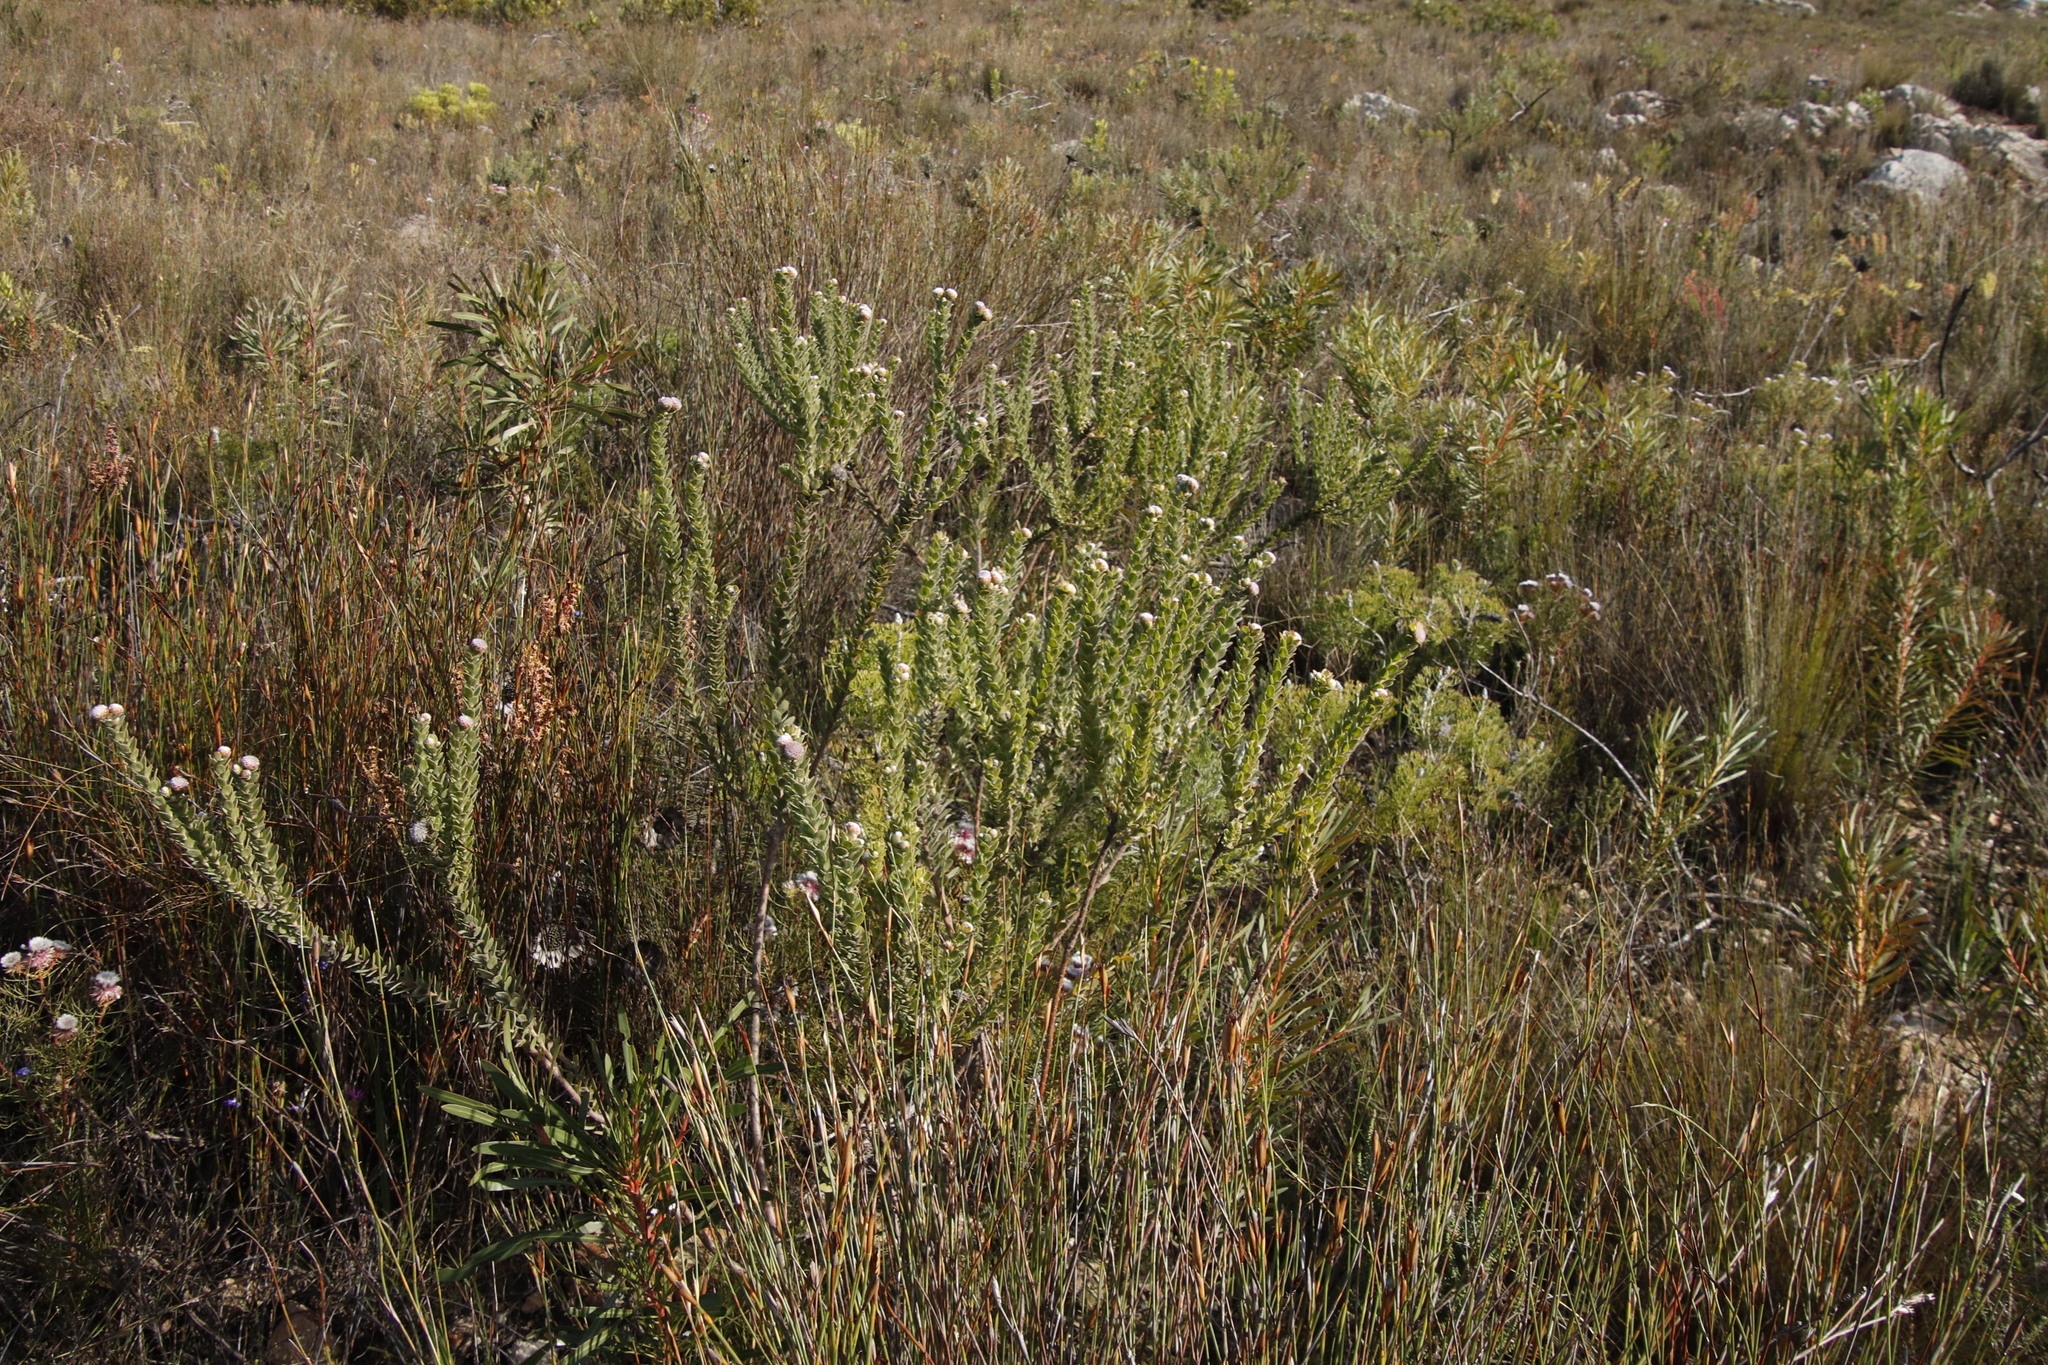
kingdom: Plantae
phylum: Tracheophyta
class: Magnoliopsida
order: Proteales
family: Proteaceae
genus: Leucospermum
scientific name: Leucospermum truncatulum
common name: Oval-leaf pincushion
